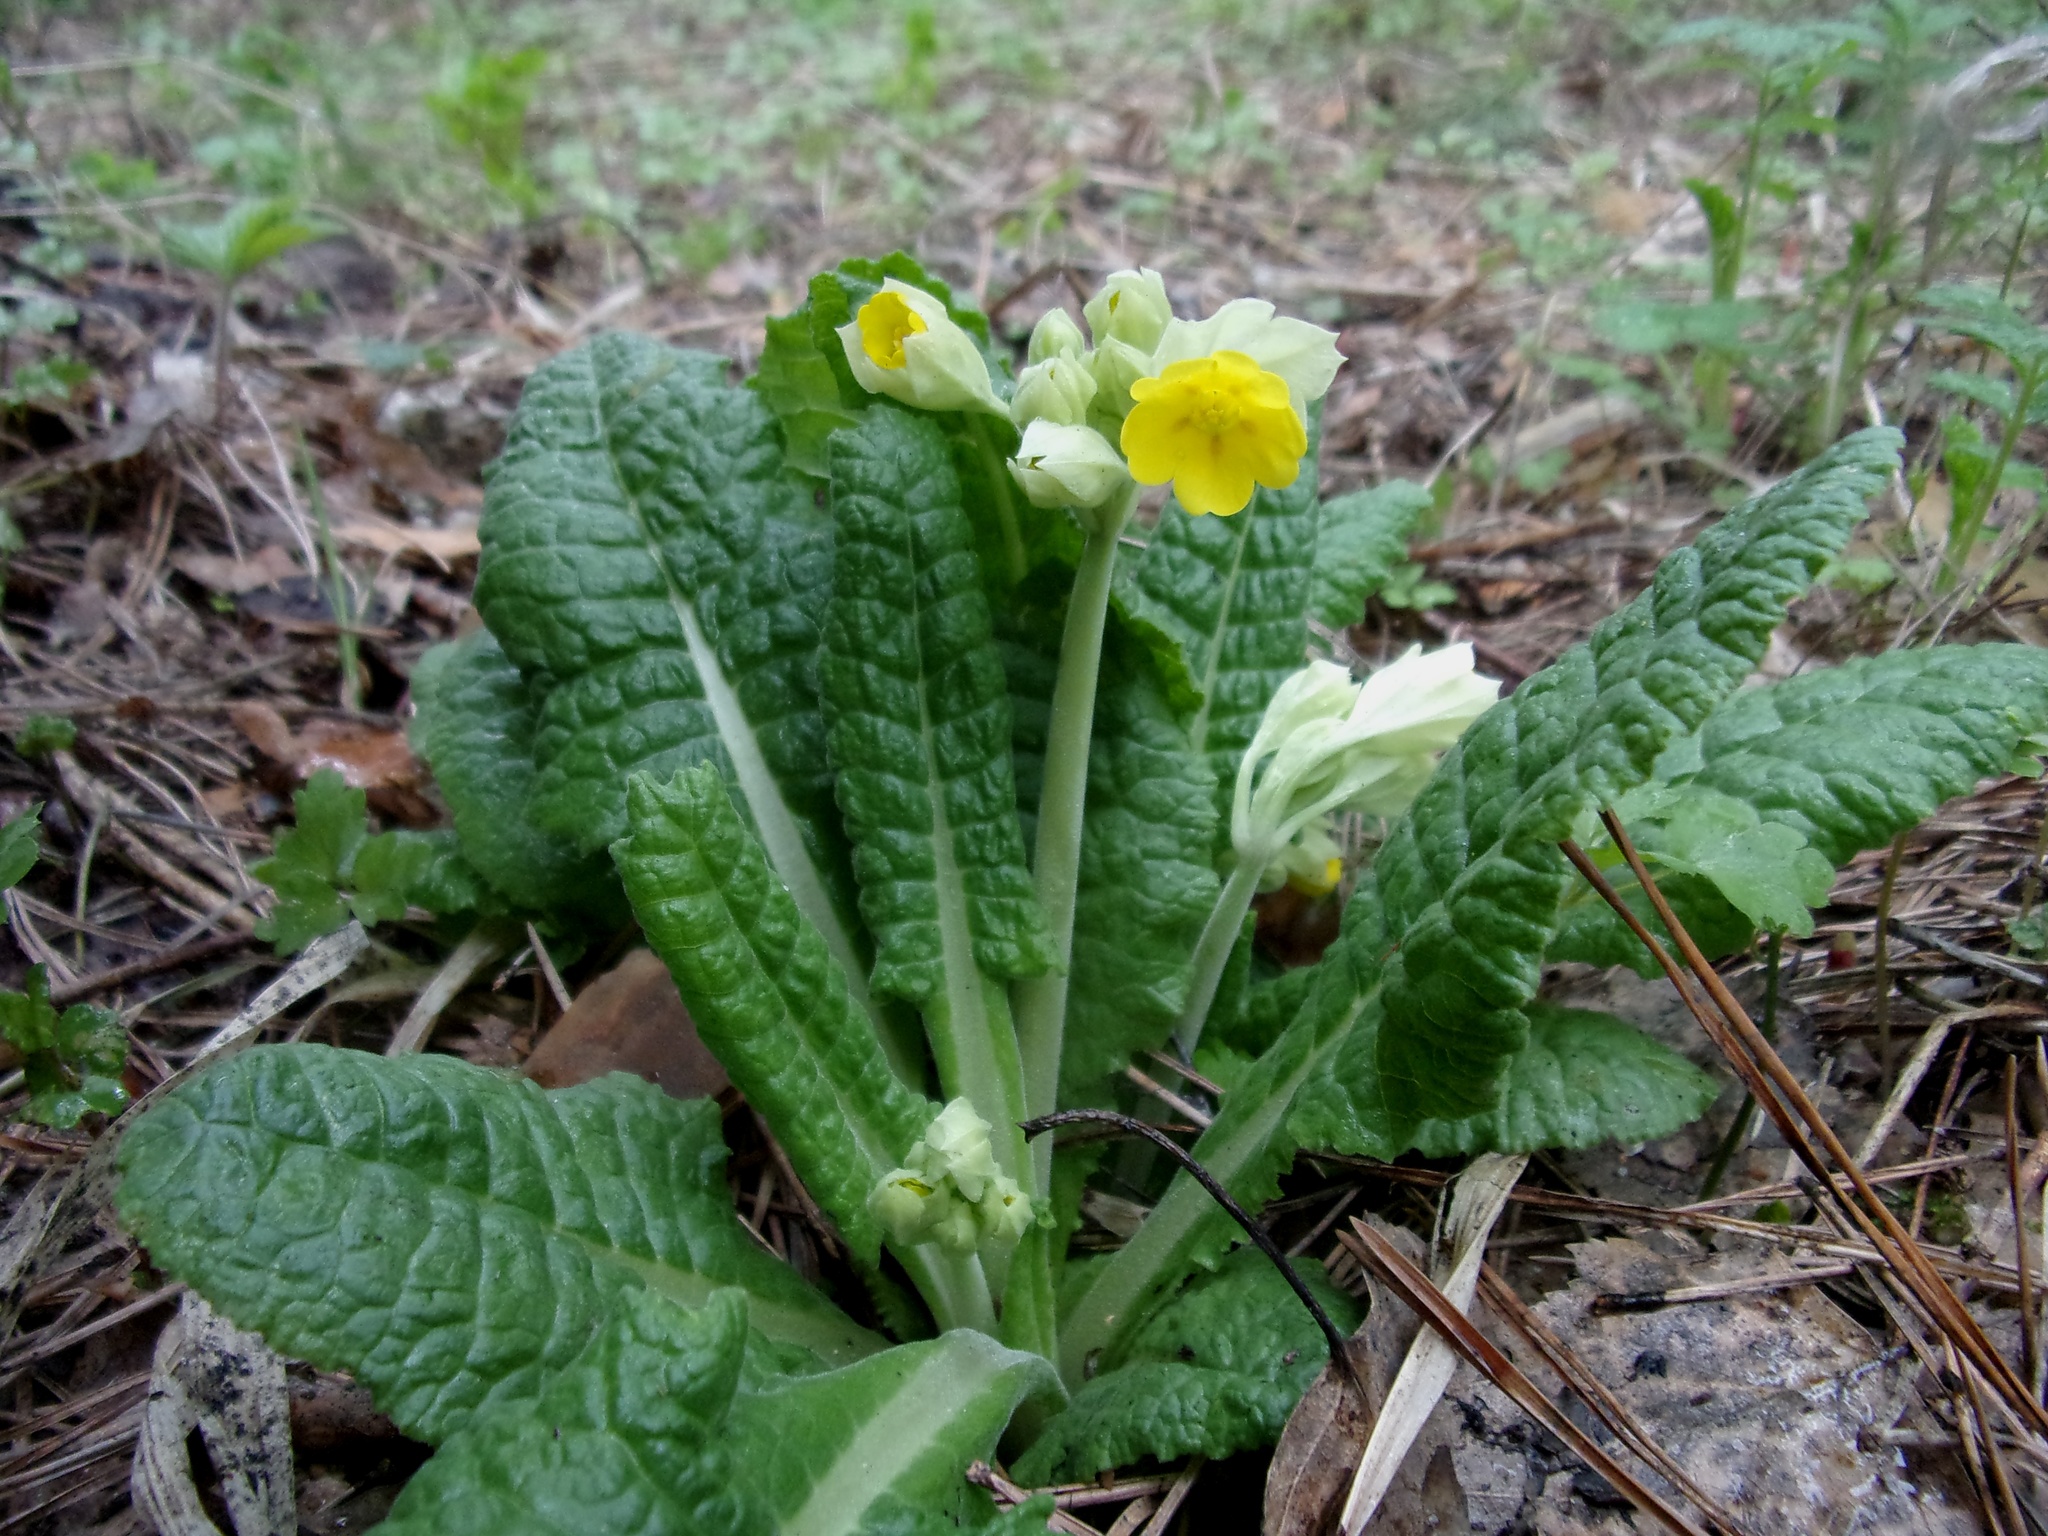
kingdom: Plantae
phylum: Tracheophyta
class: Magnoliopsida
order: Ericales
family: Primulaceae
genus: Primula
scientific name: Primula veris
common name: Cowslip
